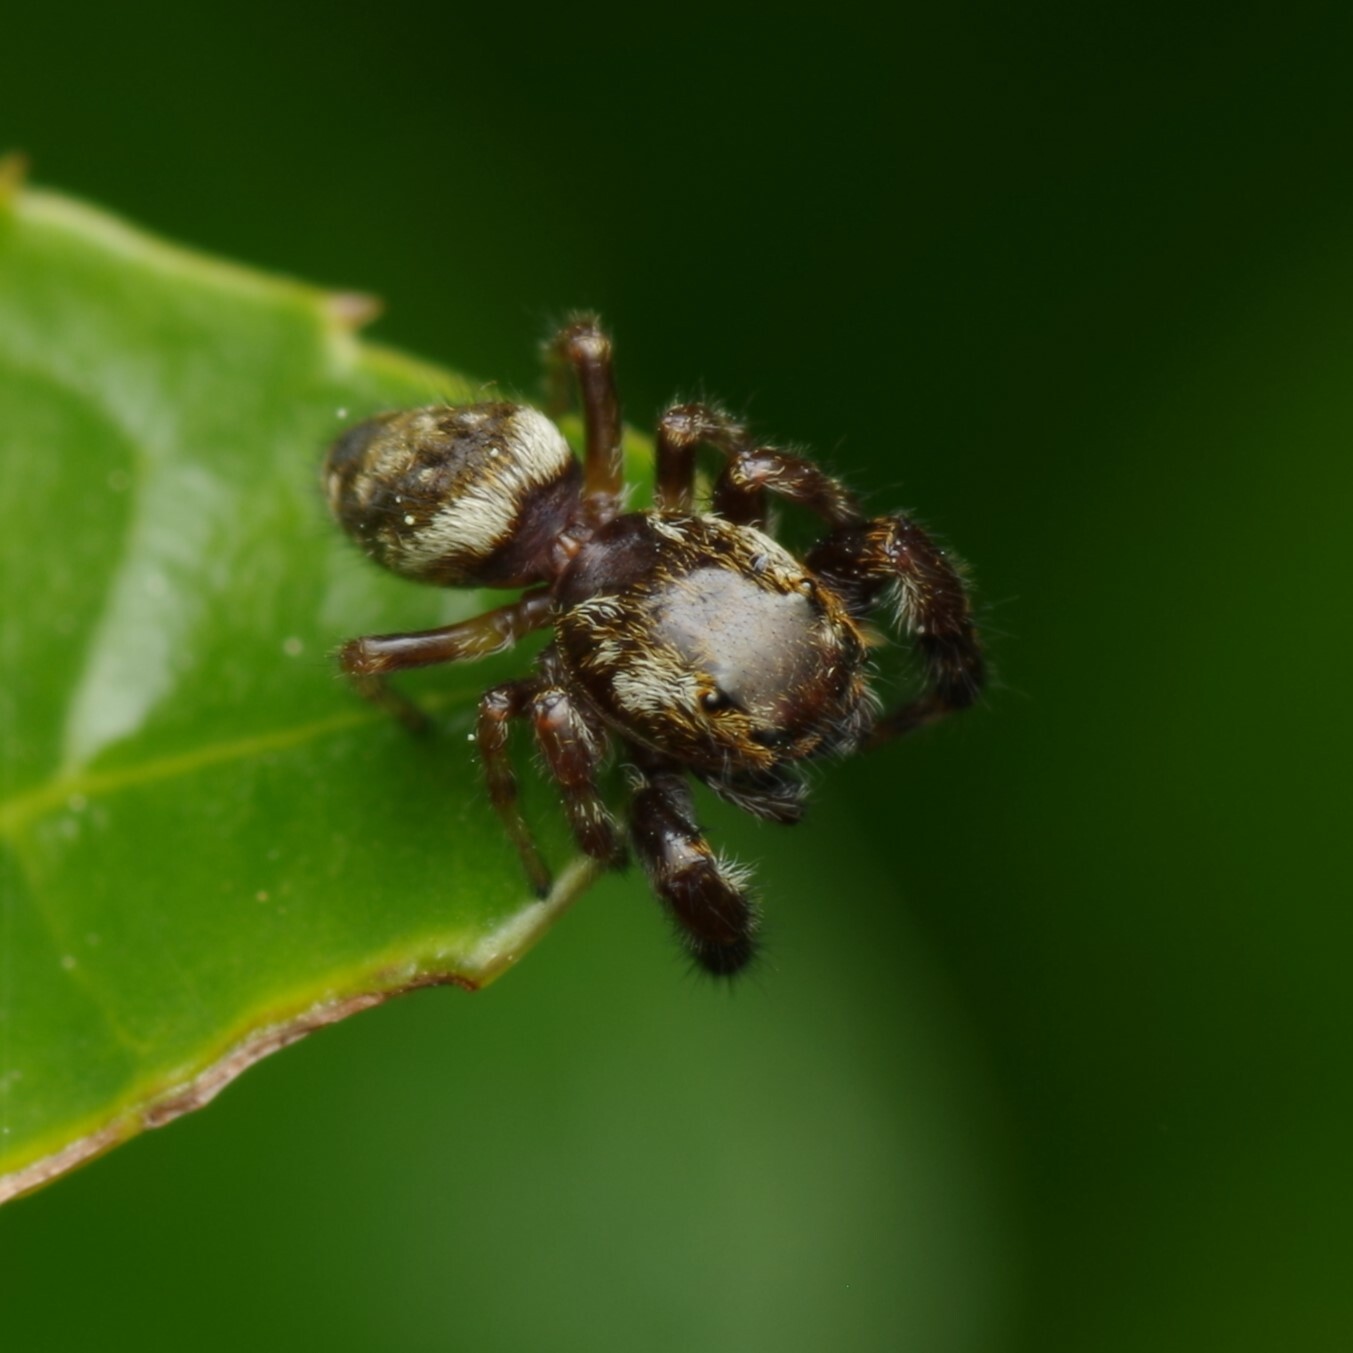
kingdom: Animalia
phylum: Arthropoda
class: Arachnida
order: Araneae
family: Salticidae
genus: Macaroeris
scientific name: Macaroeris nidicolens
